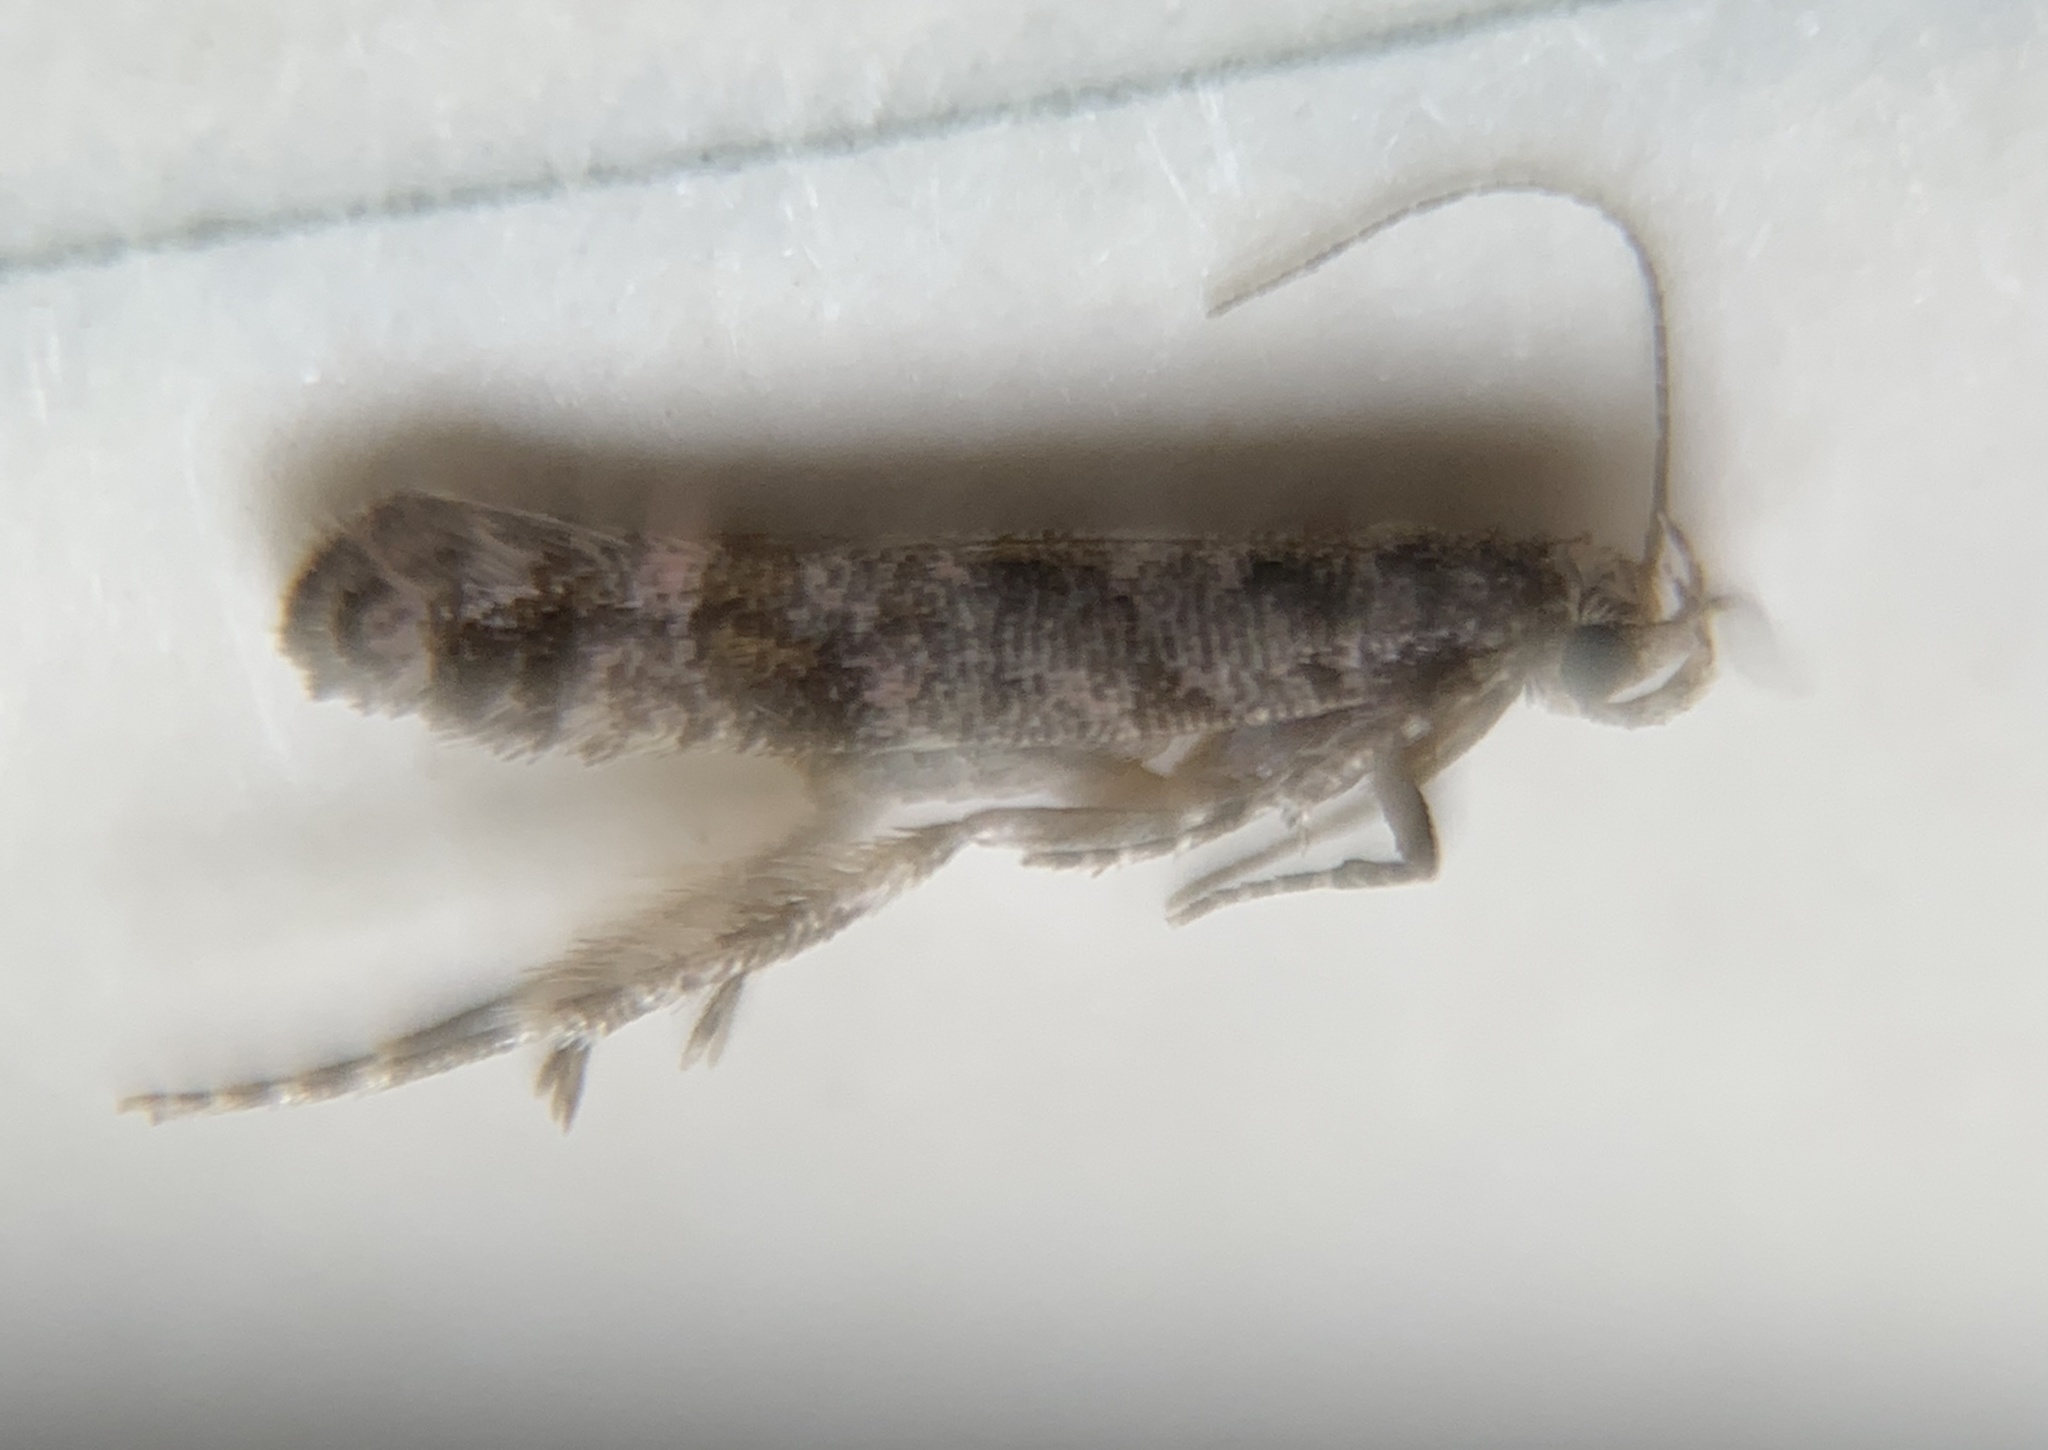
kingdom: Animalia
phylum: Arthropoda
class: Insecta
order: Lepidoptera
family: Gelechiidae
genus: Aristotelia
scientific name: Aristotelia rubidella
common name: Ruby aristotelia moth
